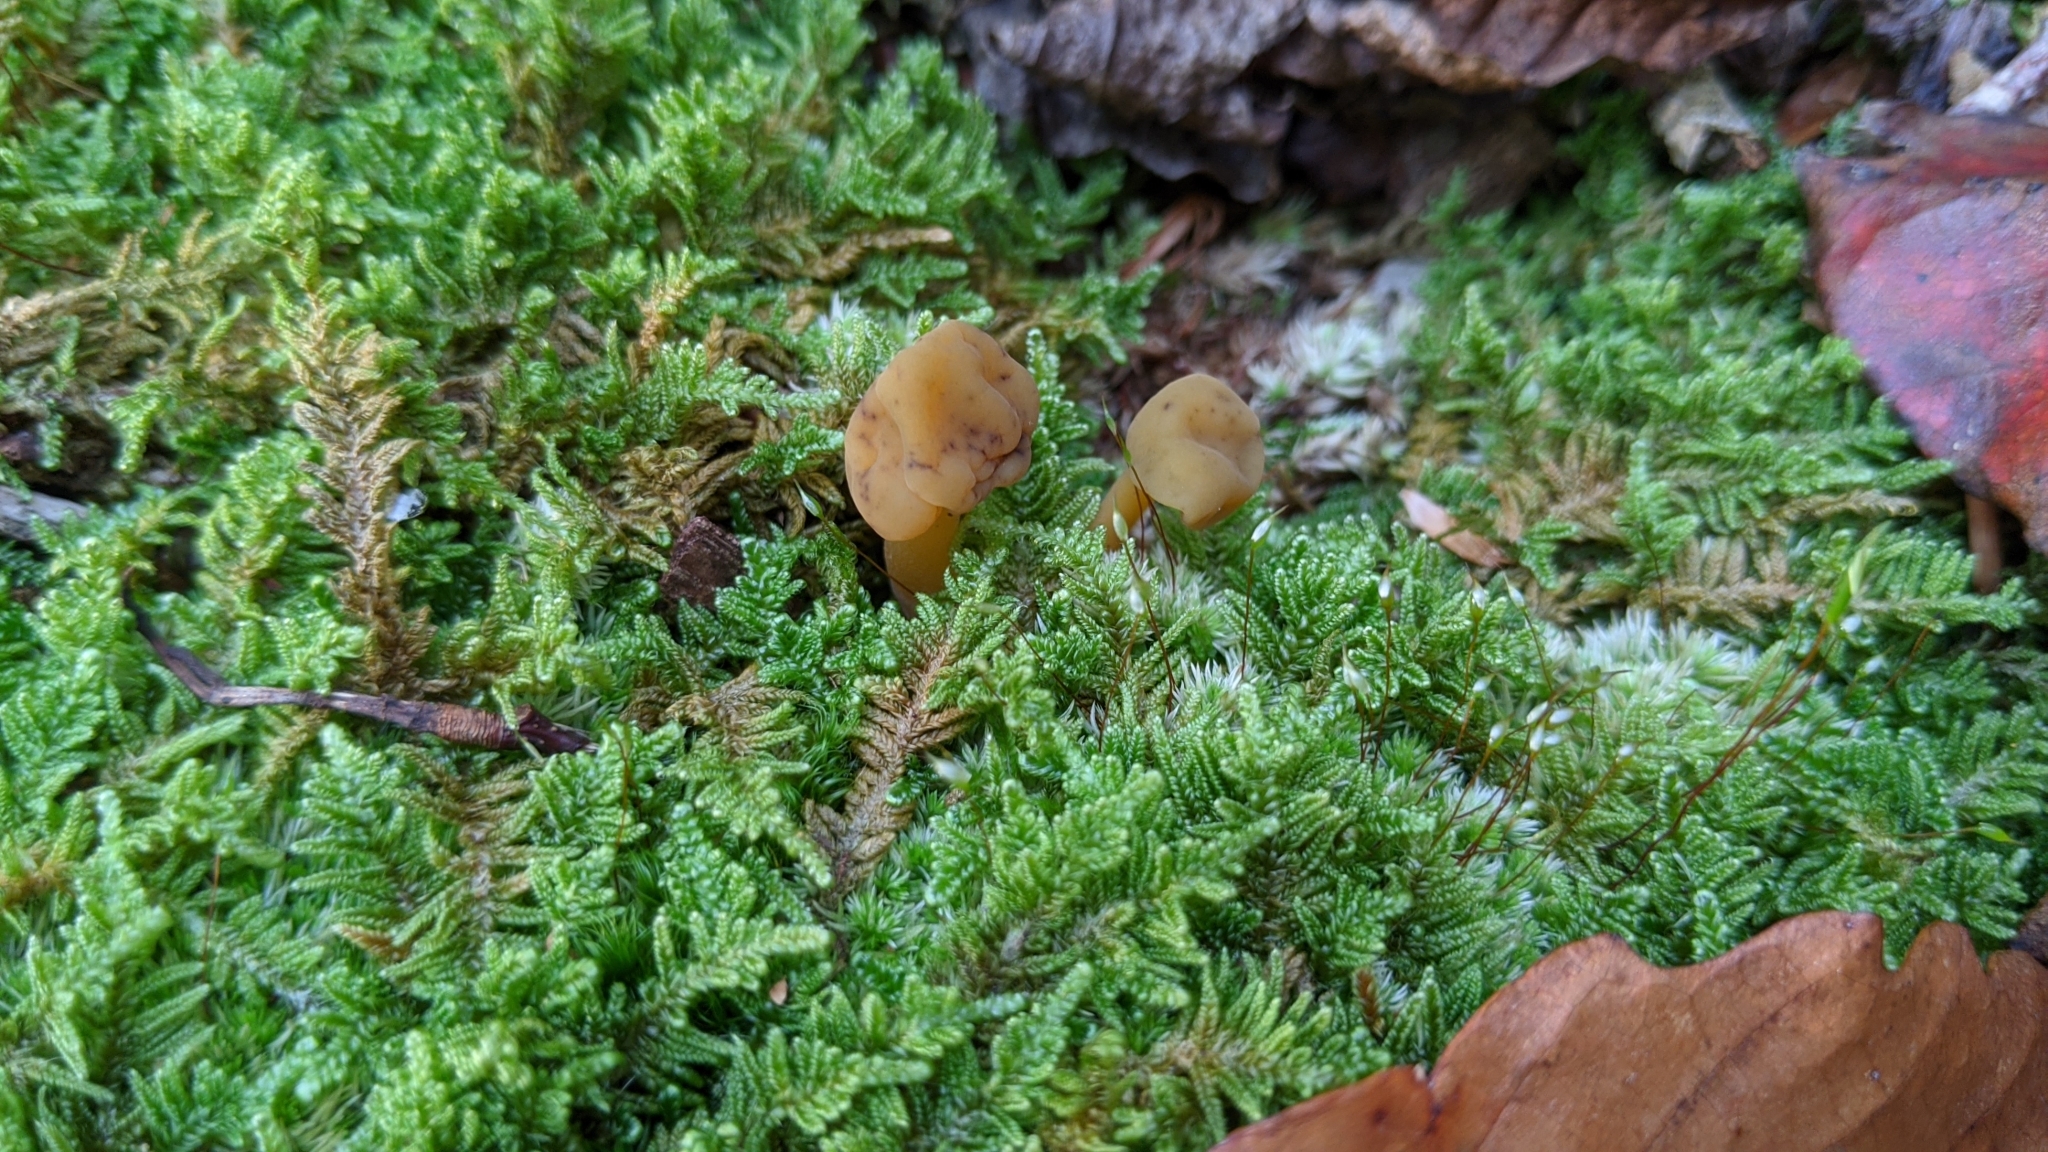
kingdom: Fungi
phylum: Ascomycota
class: Leotiomycetes
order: Leotiales
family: Leotiaceae
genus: Leotia
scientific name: Leotia lubrica
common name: Jellybaby
